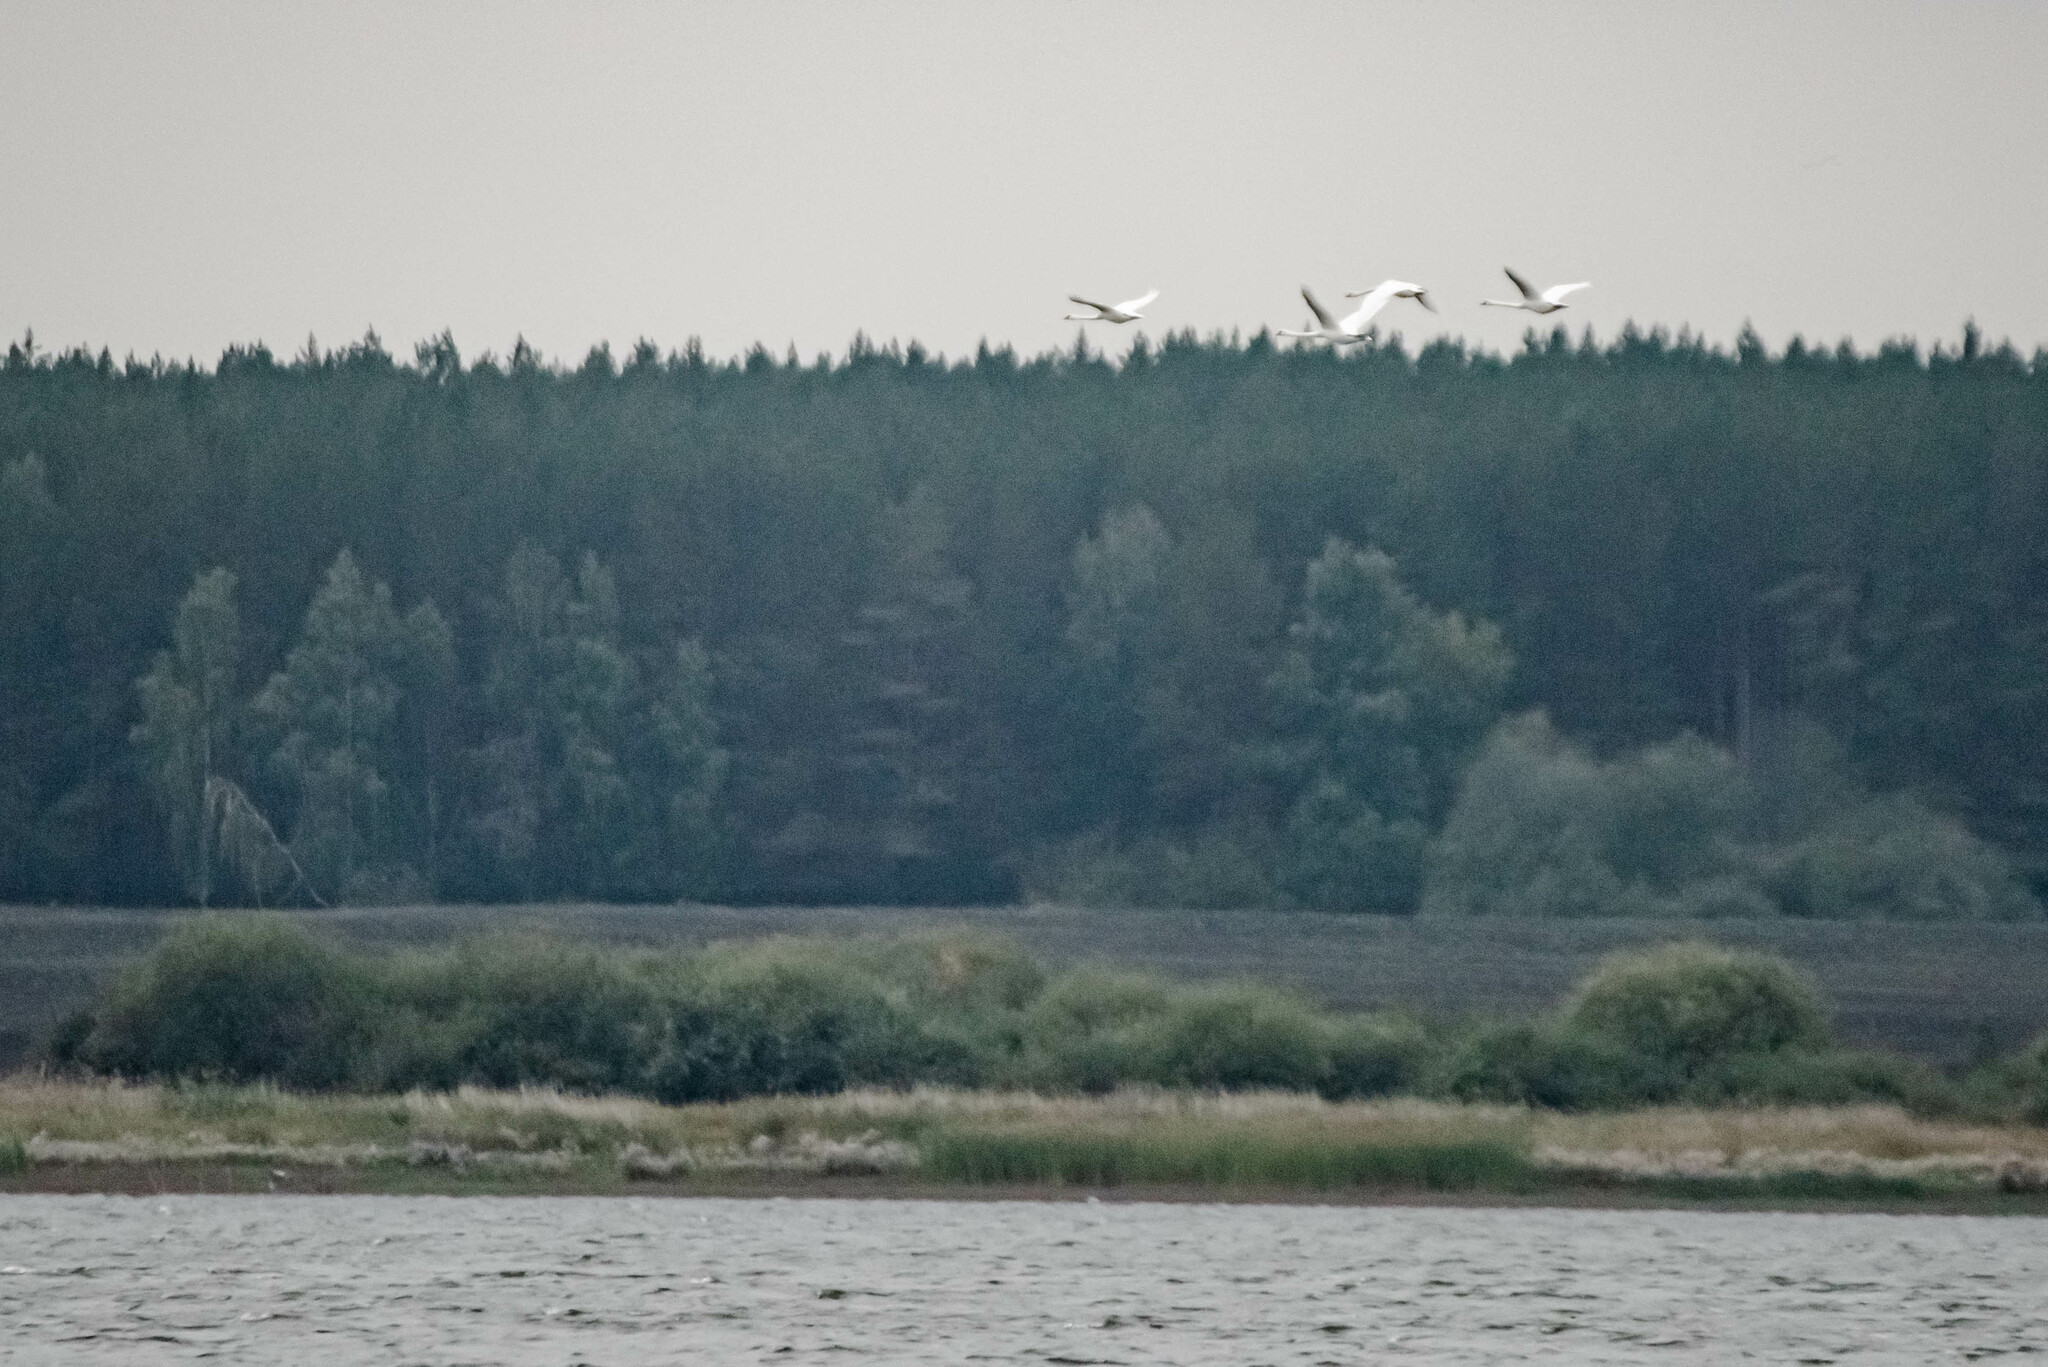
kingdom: Animalia
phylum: Chordata
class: Aves
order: Anseriformes
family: Anatidae
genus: Cygnus
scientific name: Cygnus olor
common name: Mute swan
